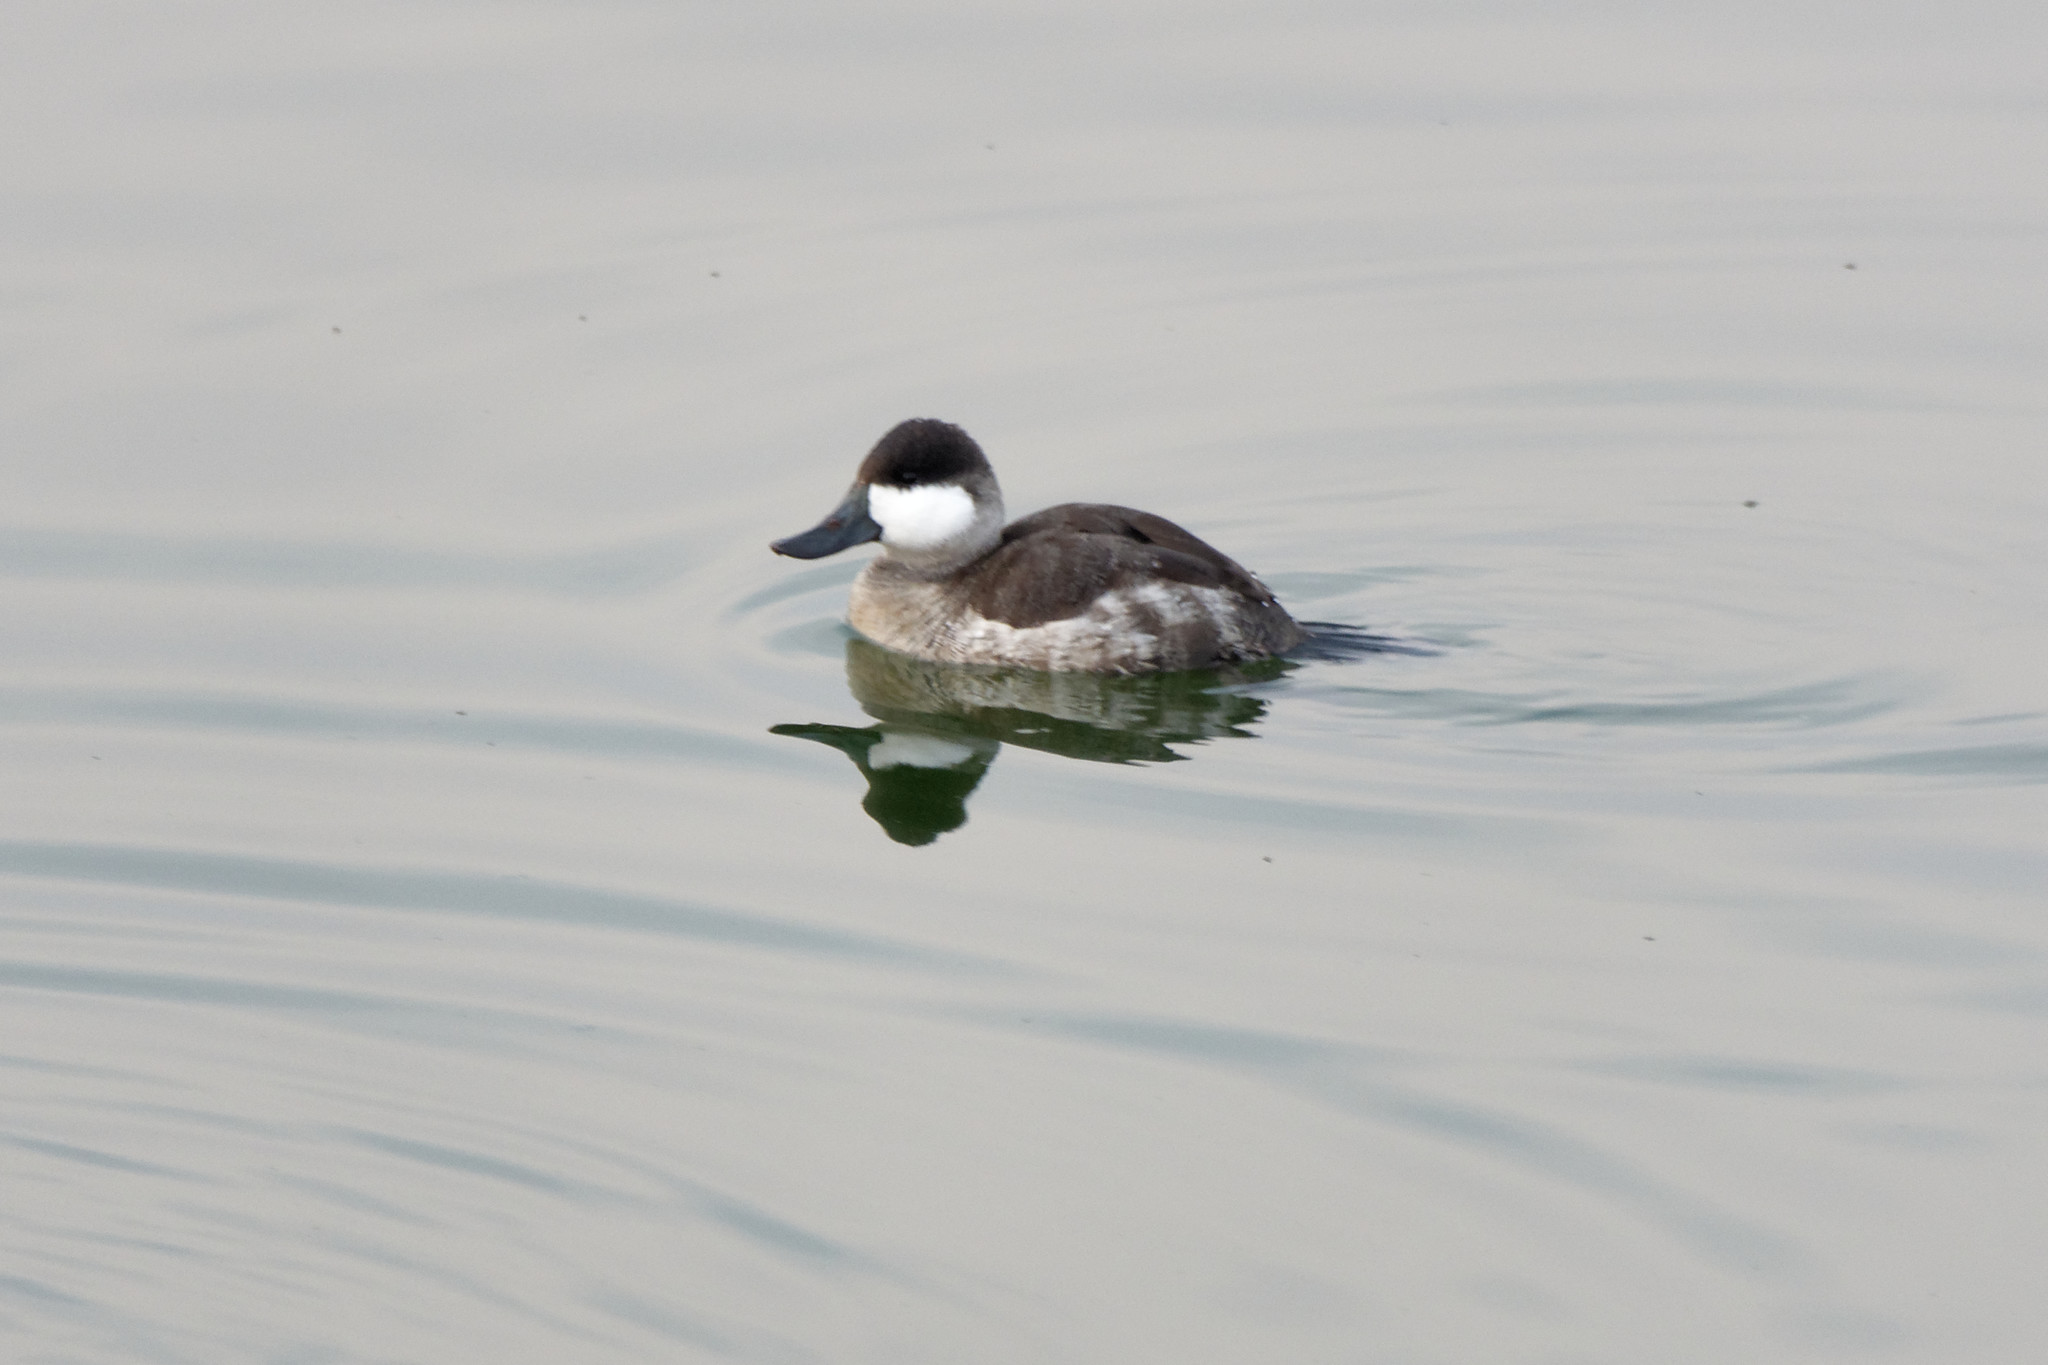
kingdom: Animalia
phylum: Chordata
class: Aves
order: Anseriformes
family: Anatidae
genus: Oxyura
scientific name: Oxyura jamaicensis
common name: Ruddy duck
